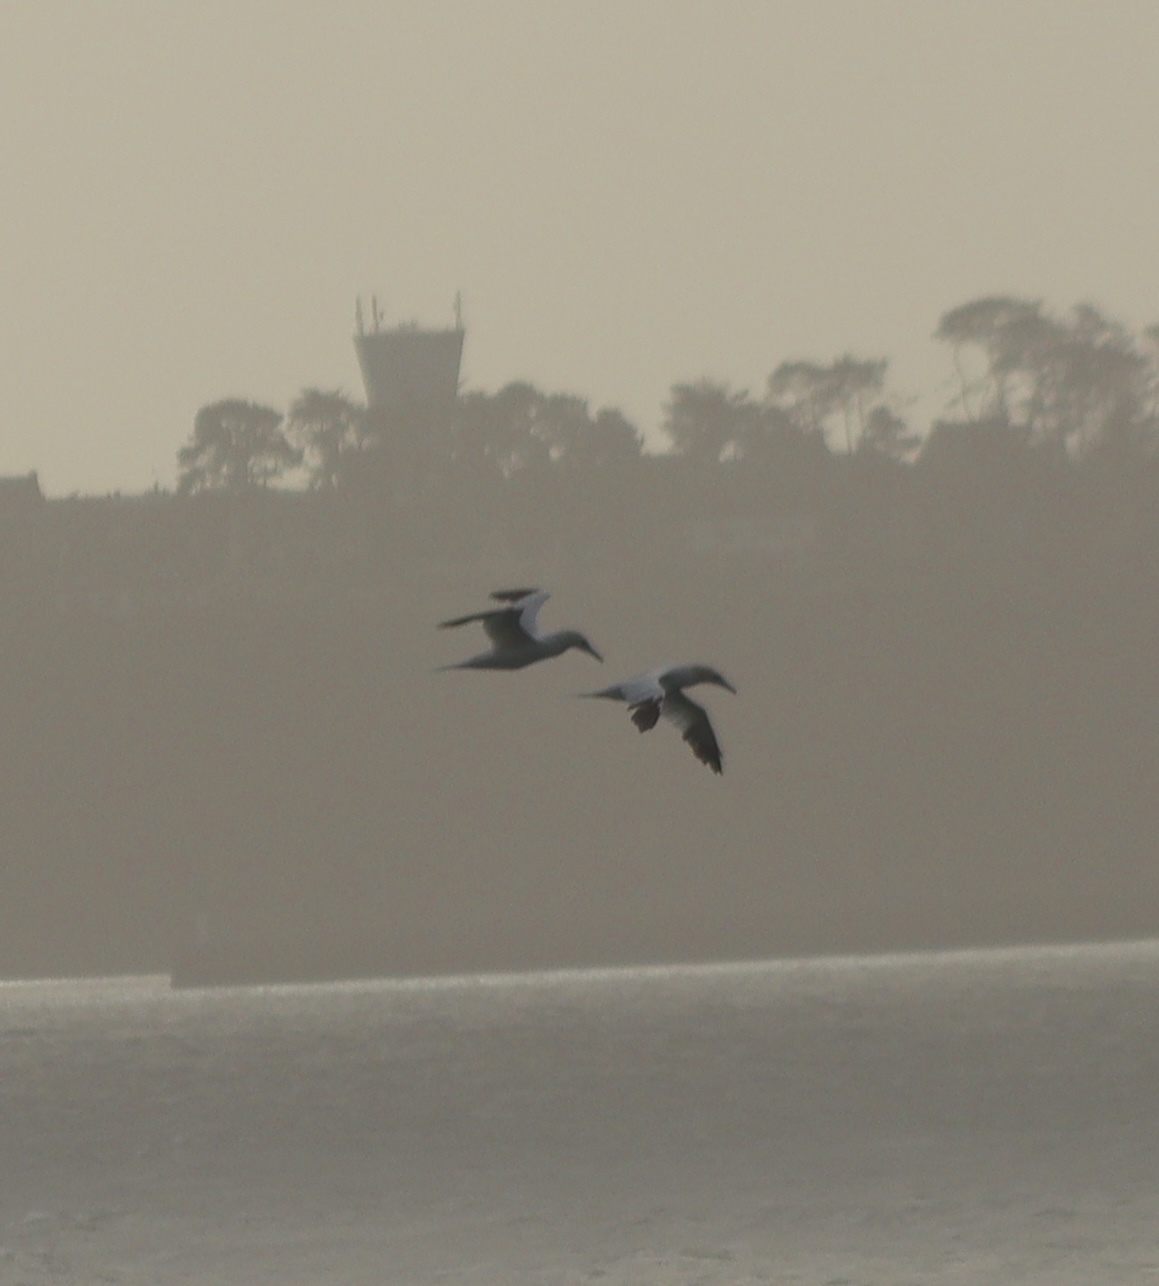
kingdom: Animalia
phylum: Chordata
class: Aves
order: Suliformes
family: Sulidae
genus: Morus
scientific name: Morus bassanus
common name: Northern gannet
